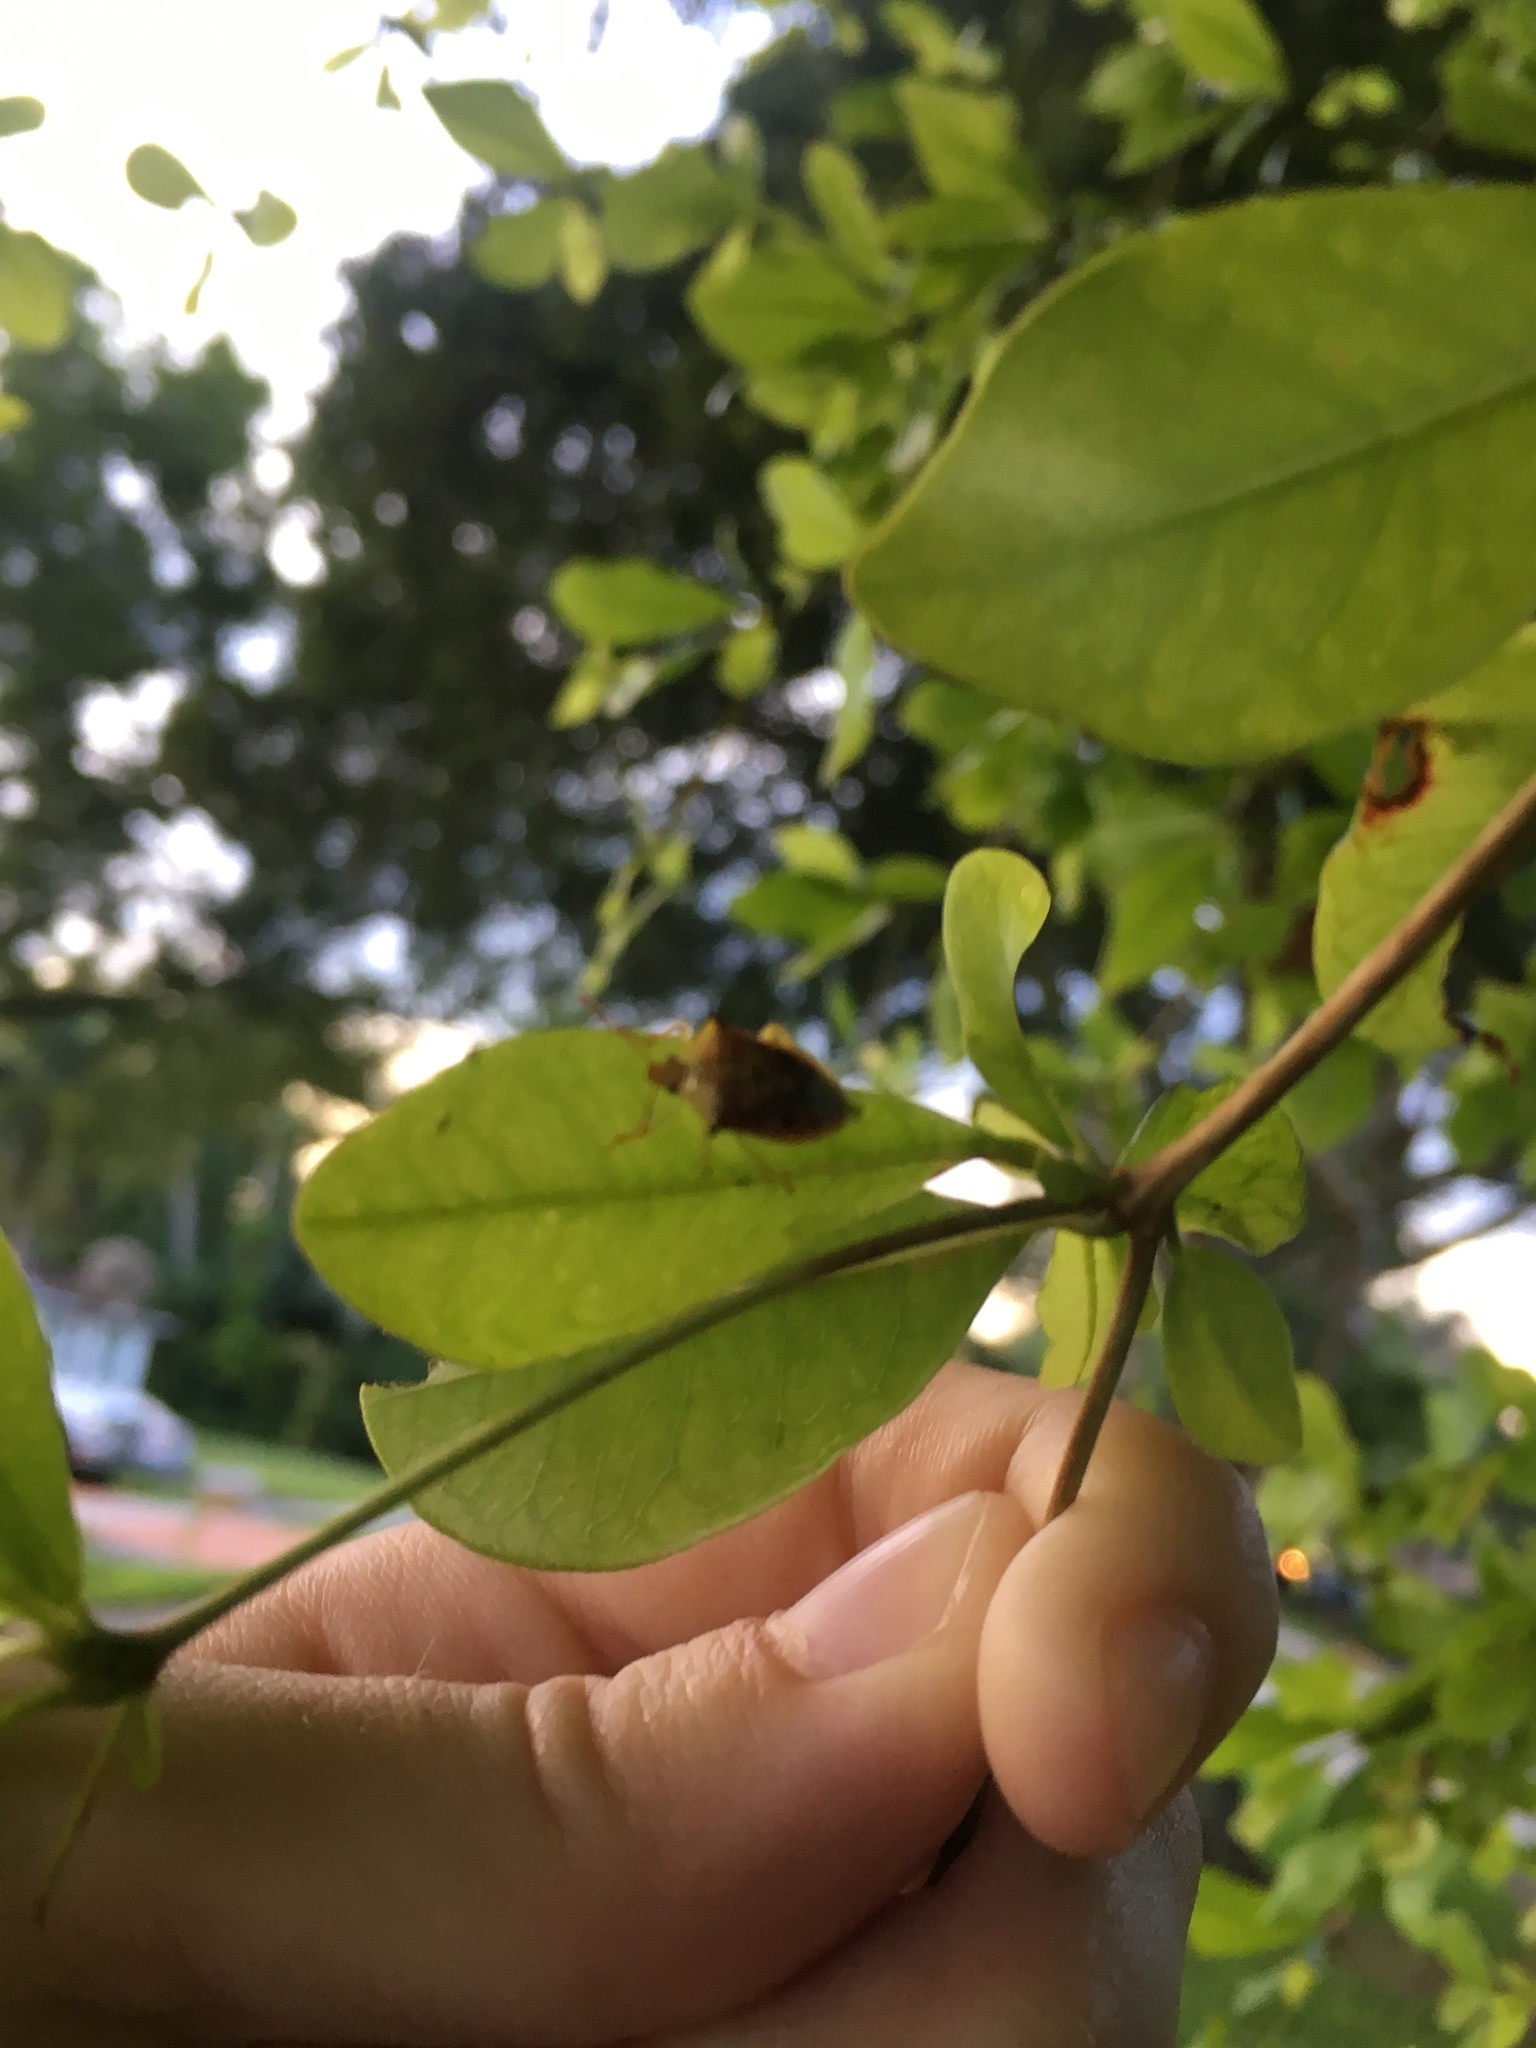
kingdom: Animalia
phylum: Arthropoda
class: Insecta
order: Hemiptera
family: Pentatomidae
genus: Tyrannocoris
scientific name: Tyrannocoris jole
